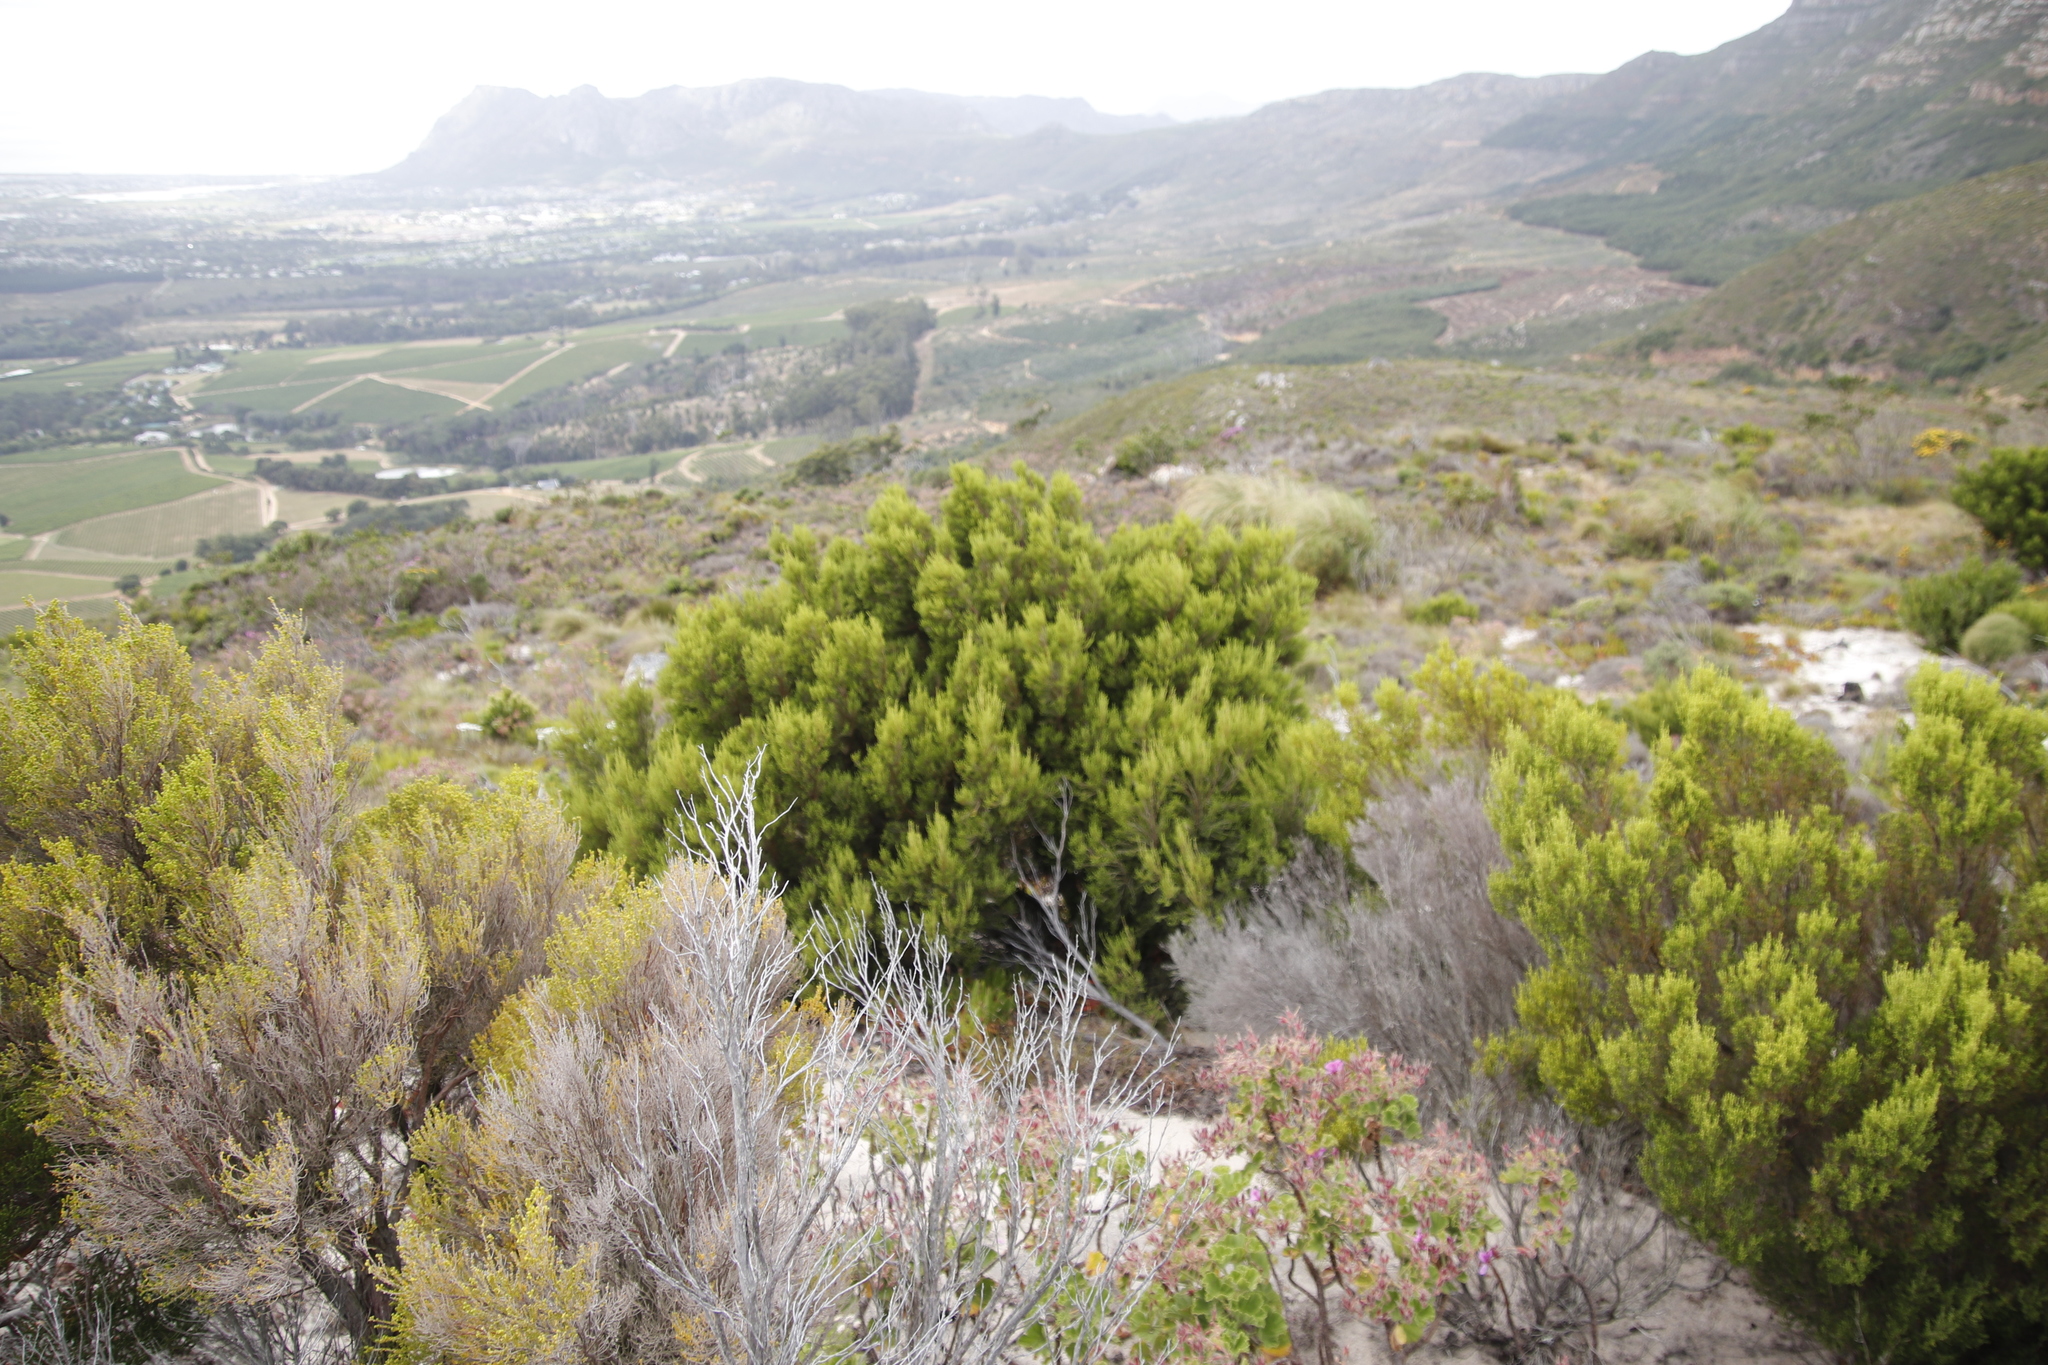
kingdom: Plantae
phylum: Tracheophyta
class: Magnoliopsida
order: Ericales
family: Ericaceae
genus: Erica
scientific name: Erica tristis
